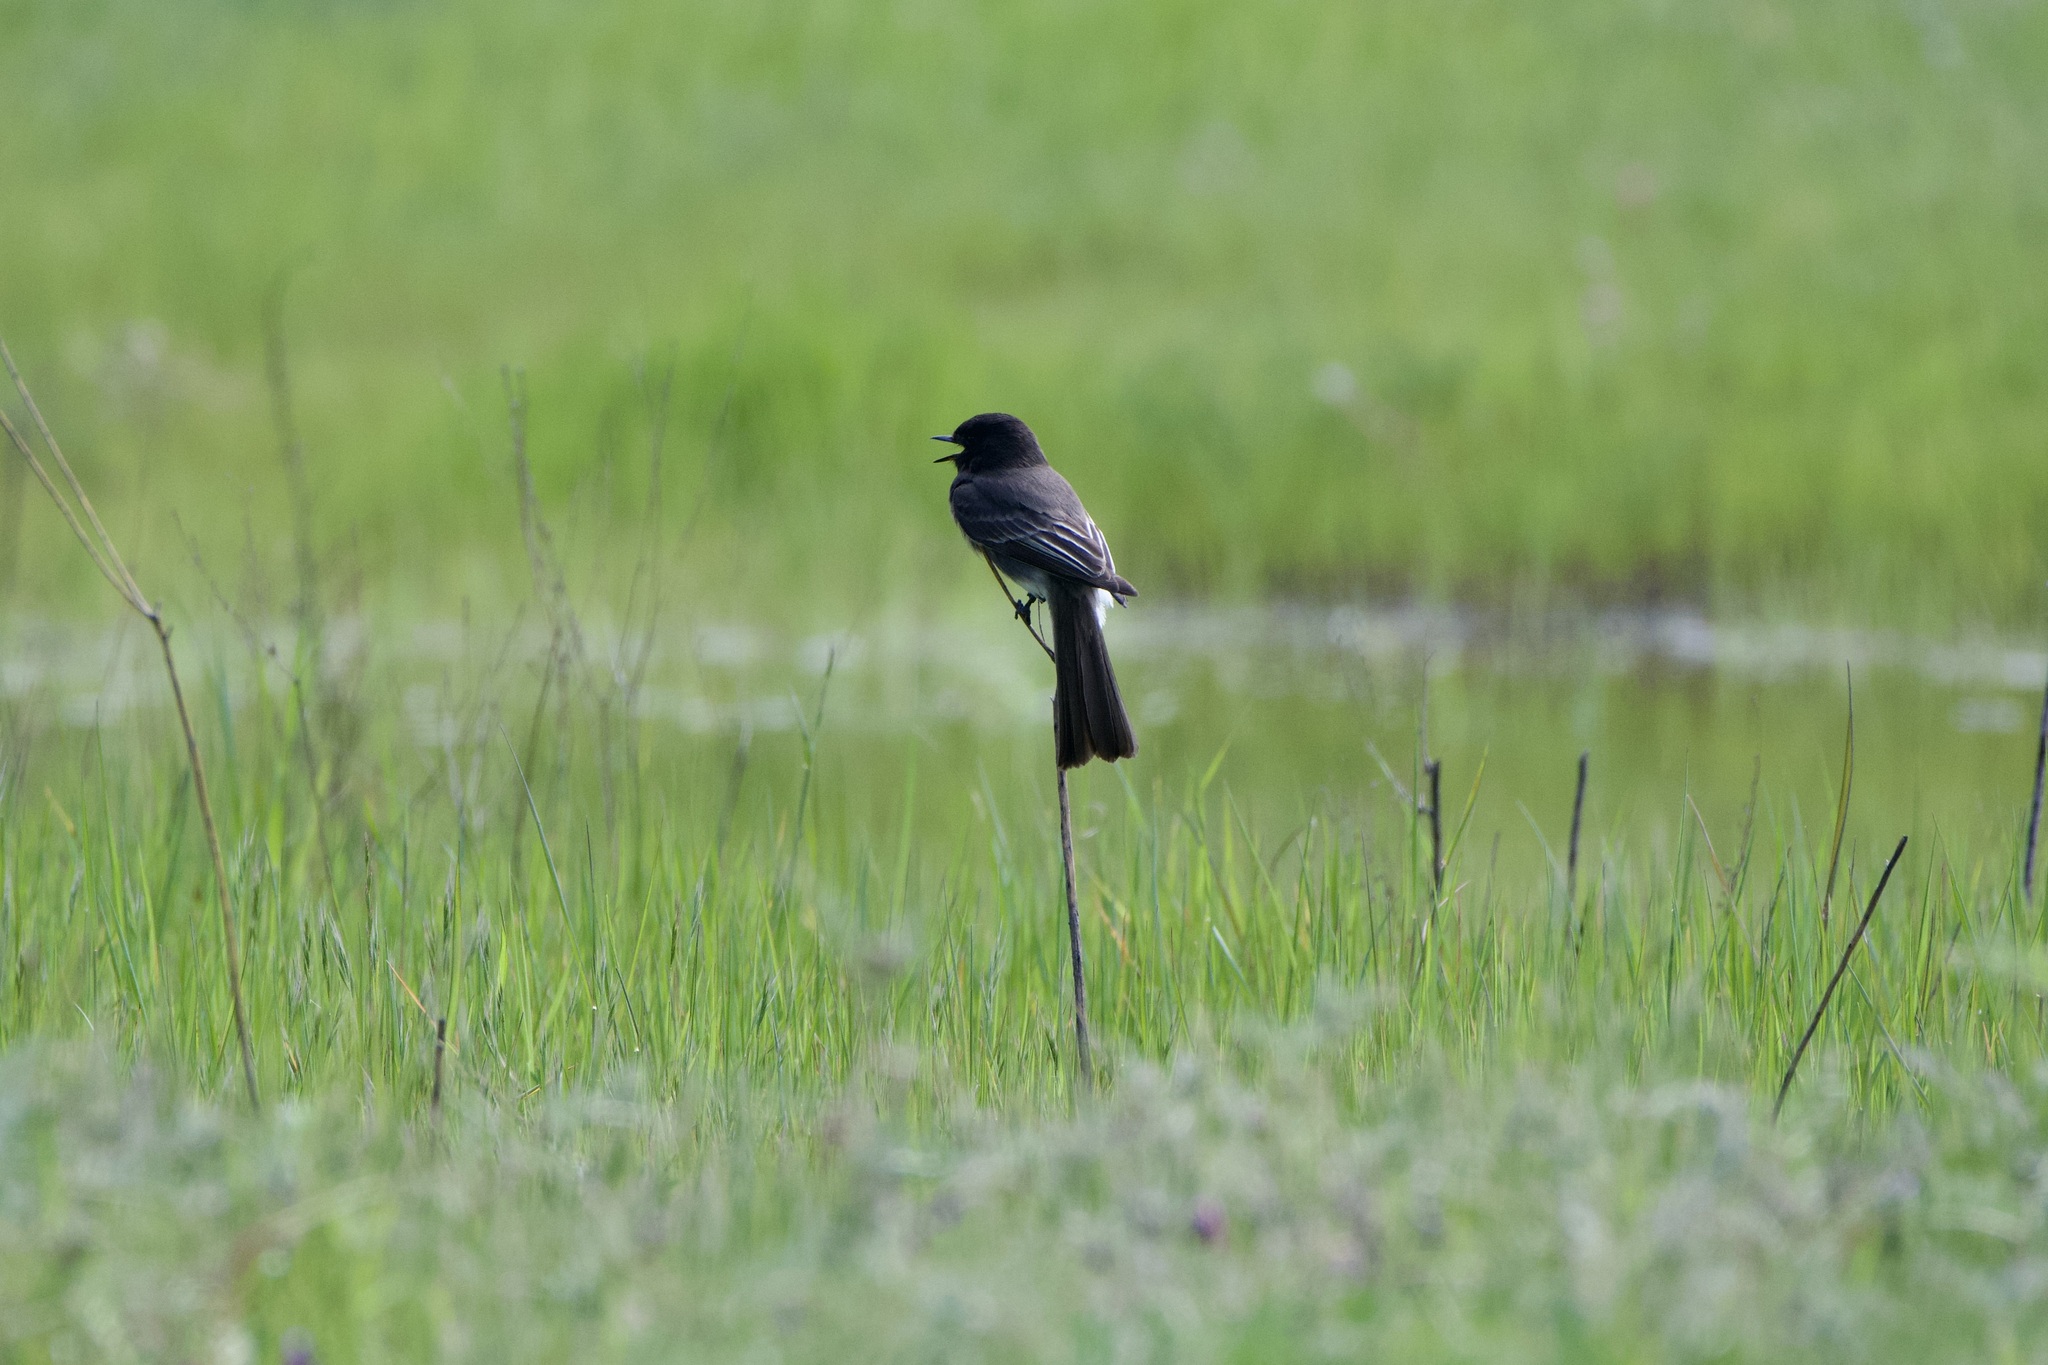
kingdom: Animalia
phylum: Chordata
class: Aves
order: Passeriformes
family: Tyrannidae
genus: Sayornis
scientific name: Sayornis nigricans
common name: Black phoebe
